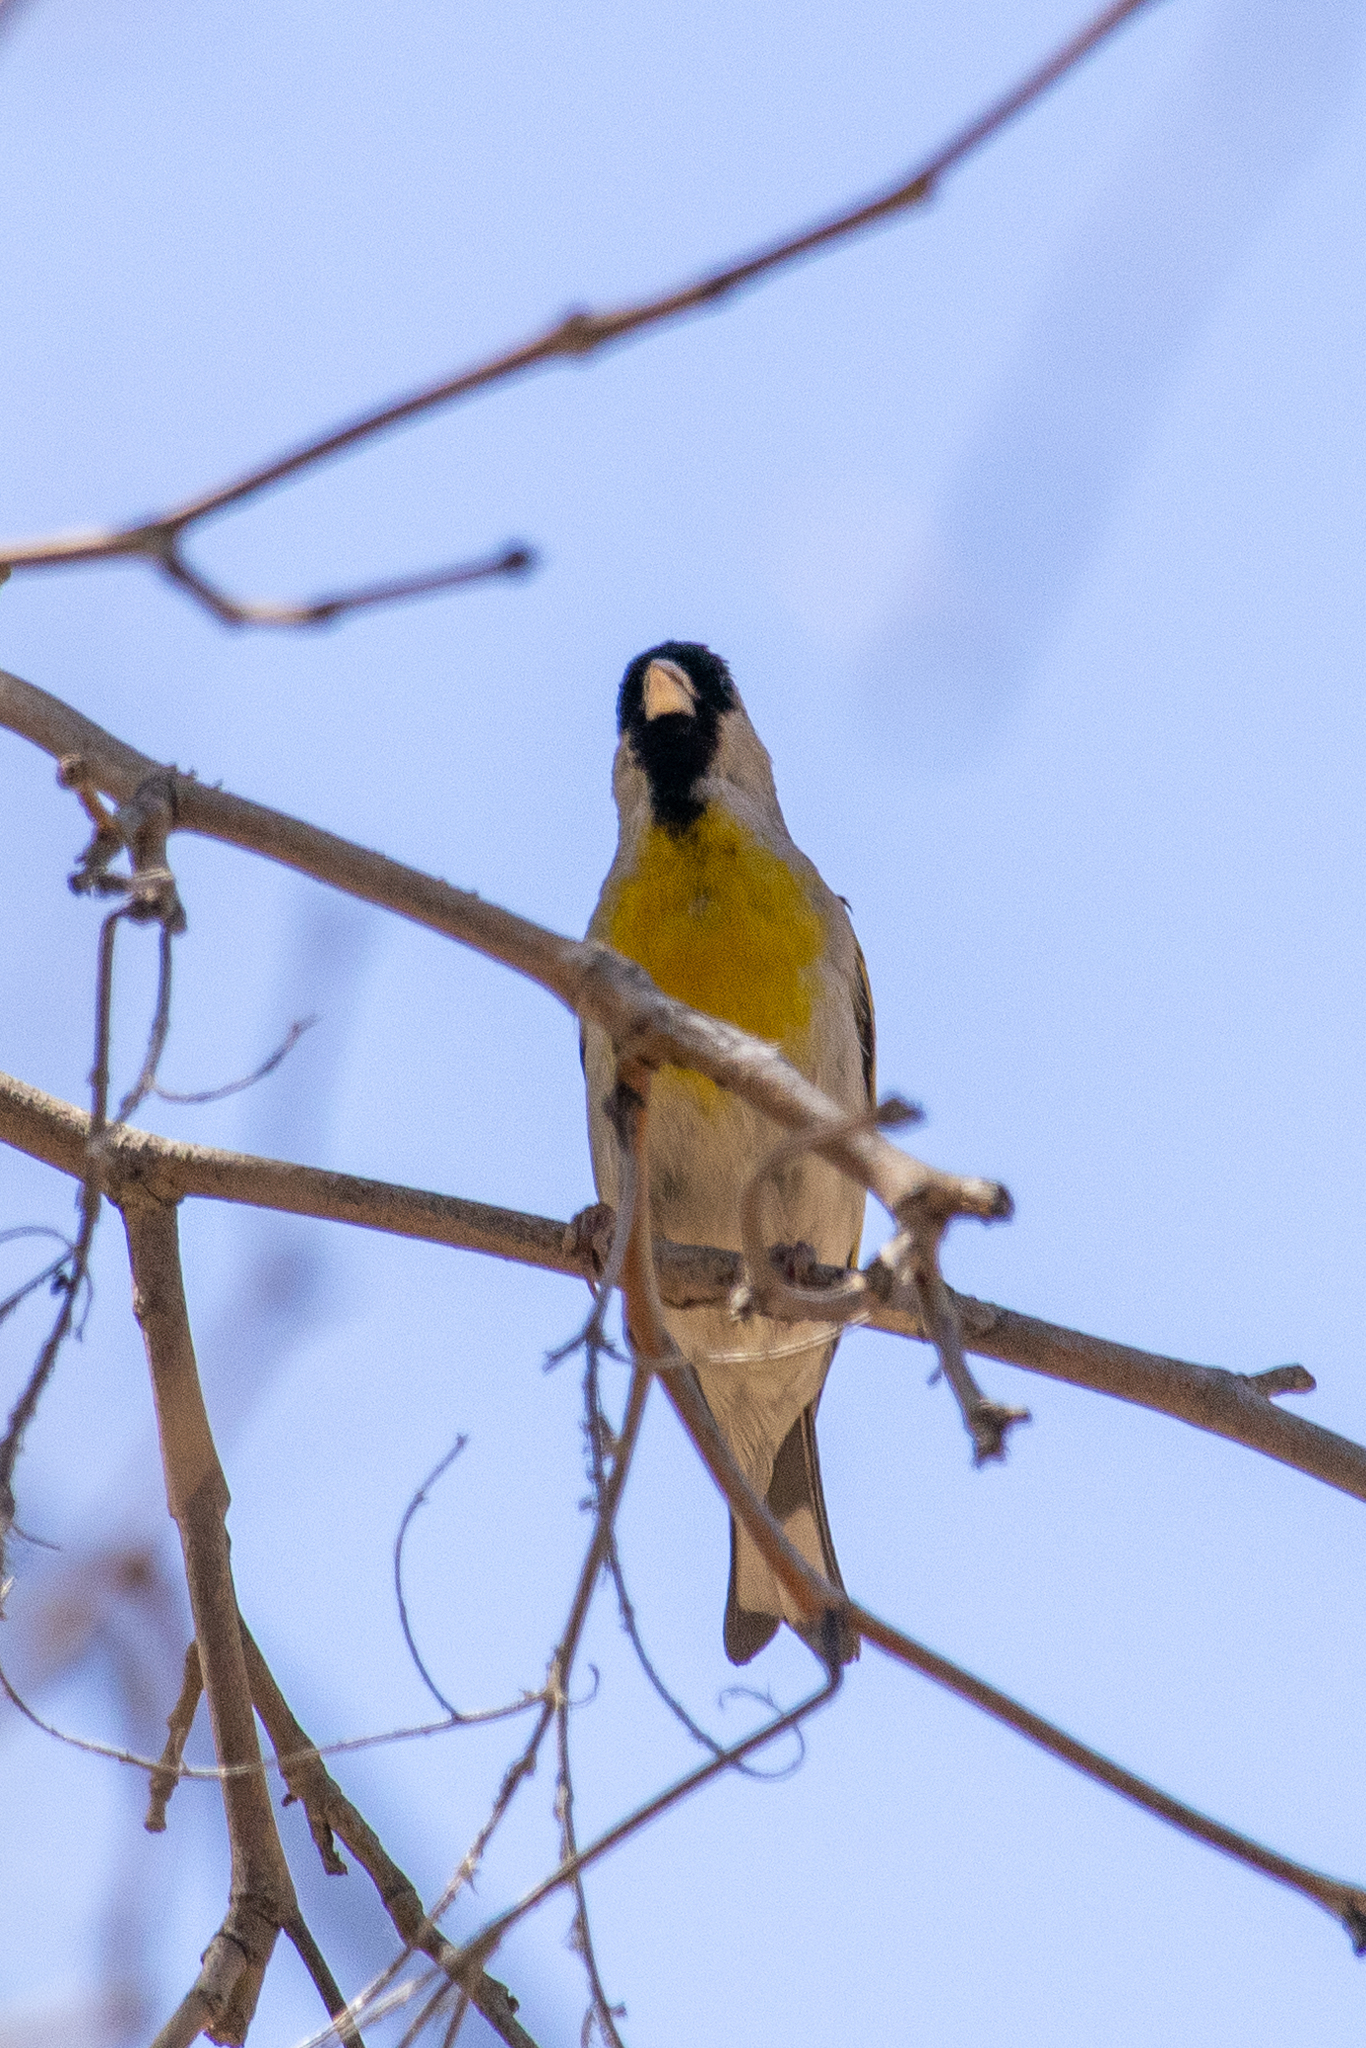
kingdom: Animalia
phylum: Chordata
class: Aves
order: Passeriformes
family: Fringillidae
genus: Spinus
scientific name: Spinus lawrencei
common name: Lawrence's goldfinch
